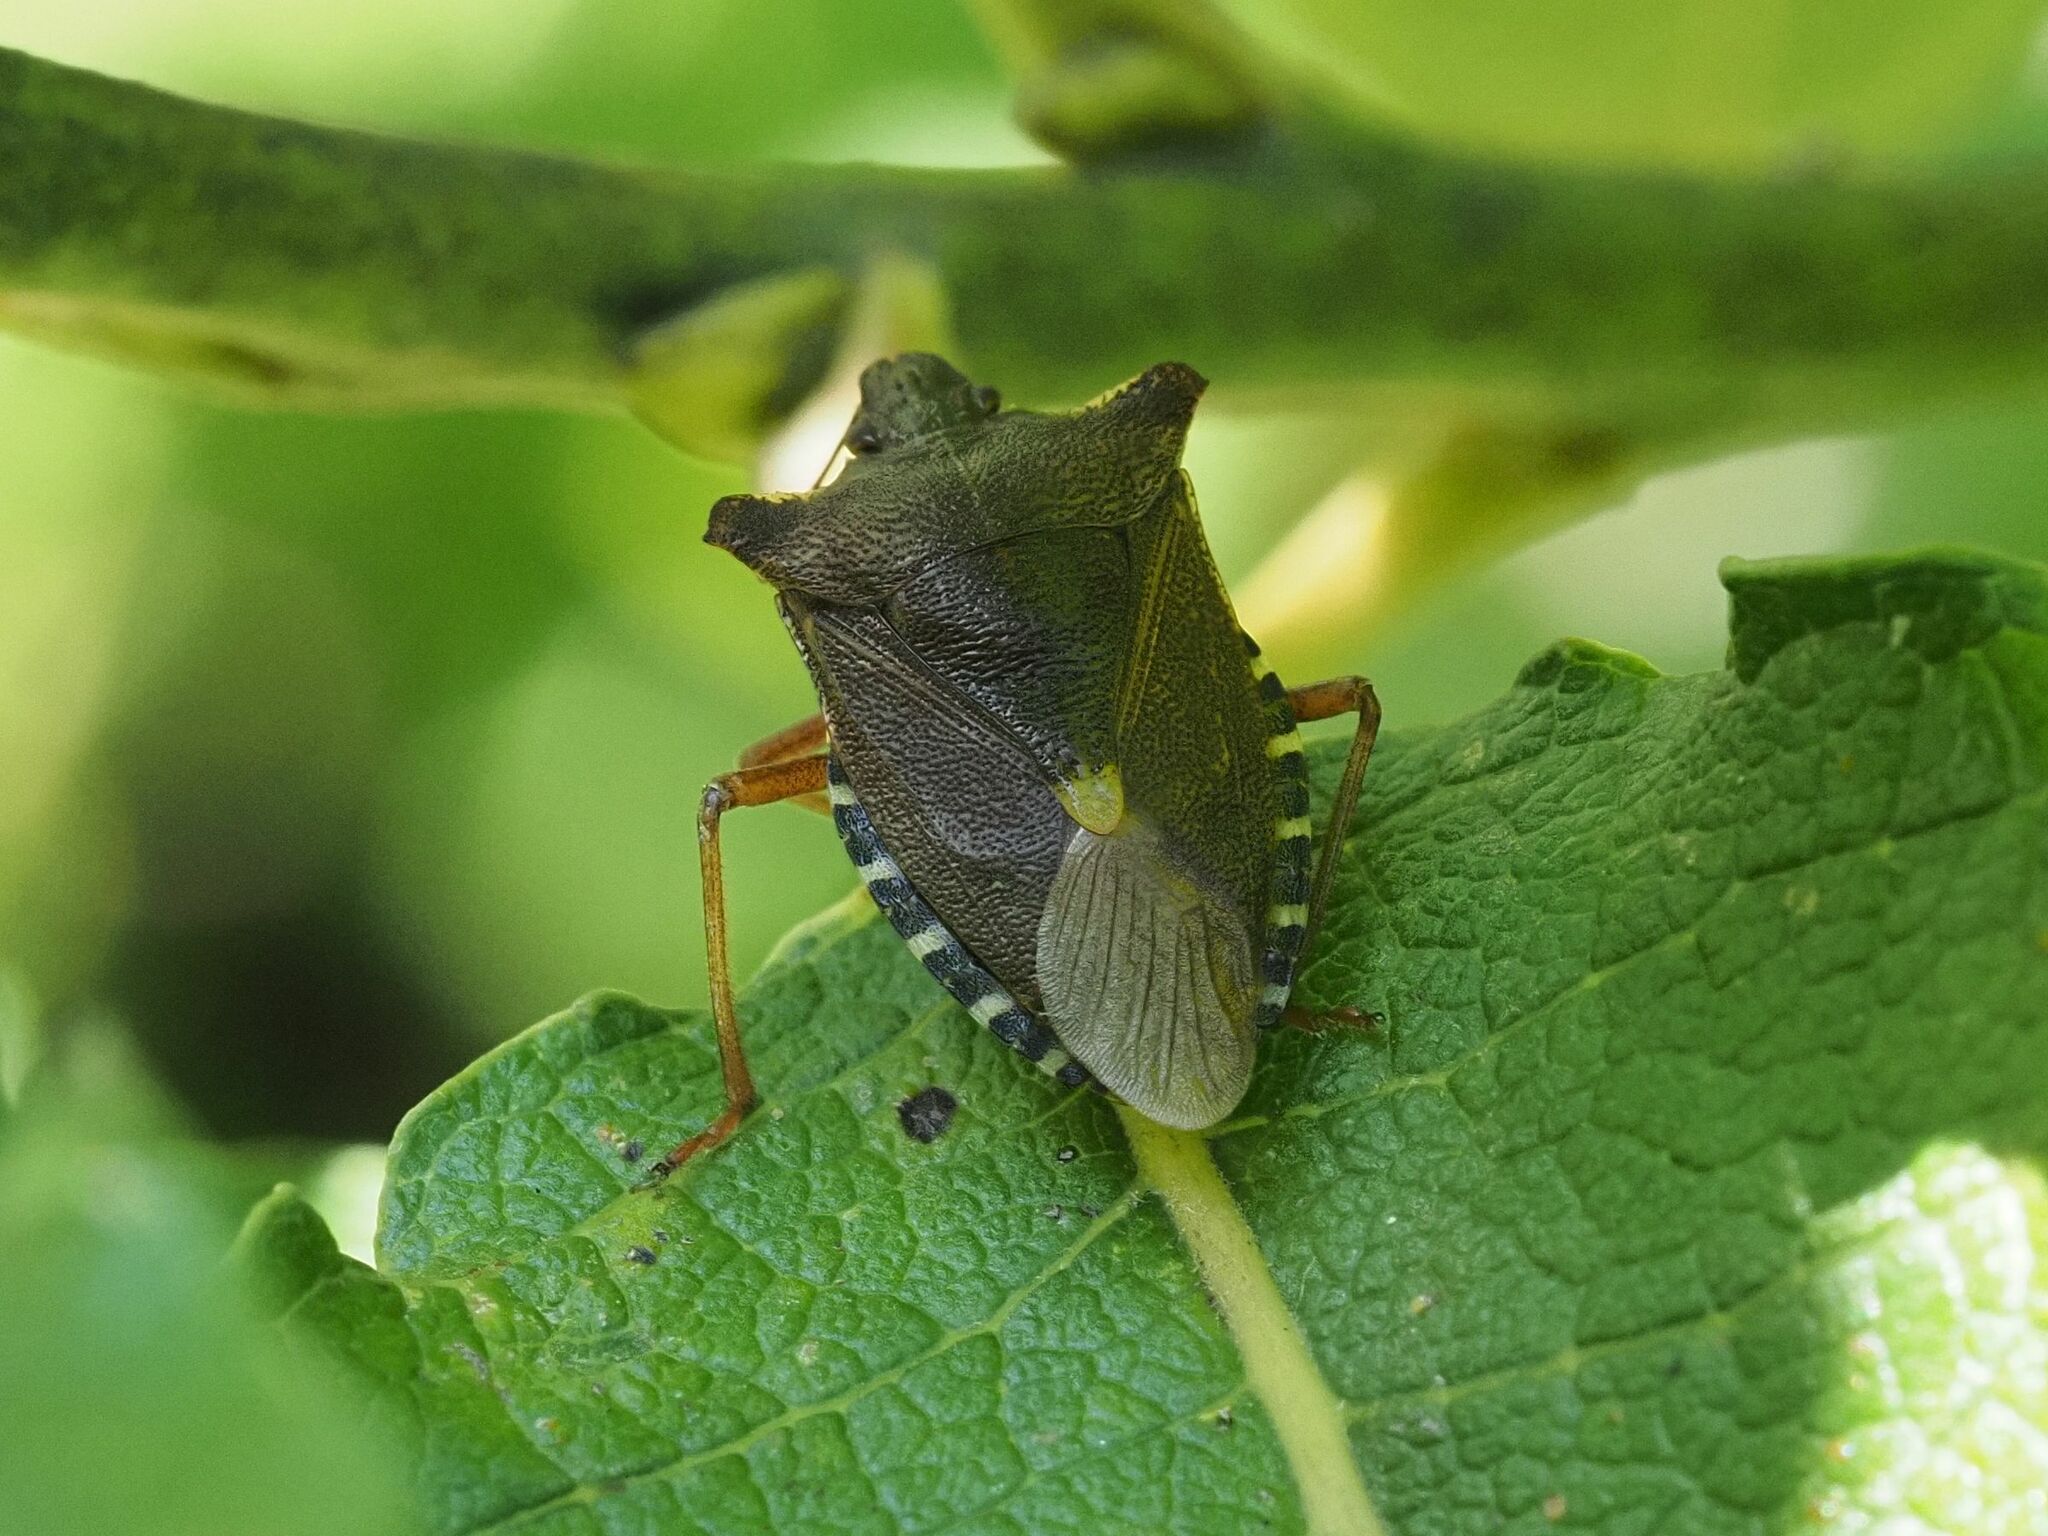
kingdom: Animalia
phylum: Arthropoda
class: Insecta
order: Hemiptera
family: Pentatomidae
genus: Pentatoma
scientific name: Pentatoma rufipes
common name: Forest bug
